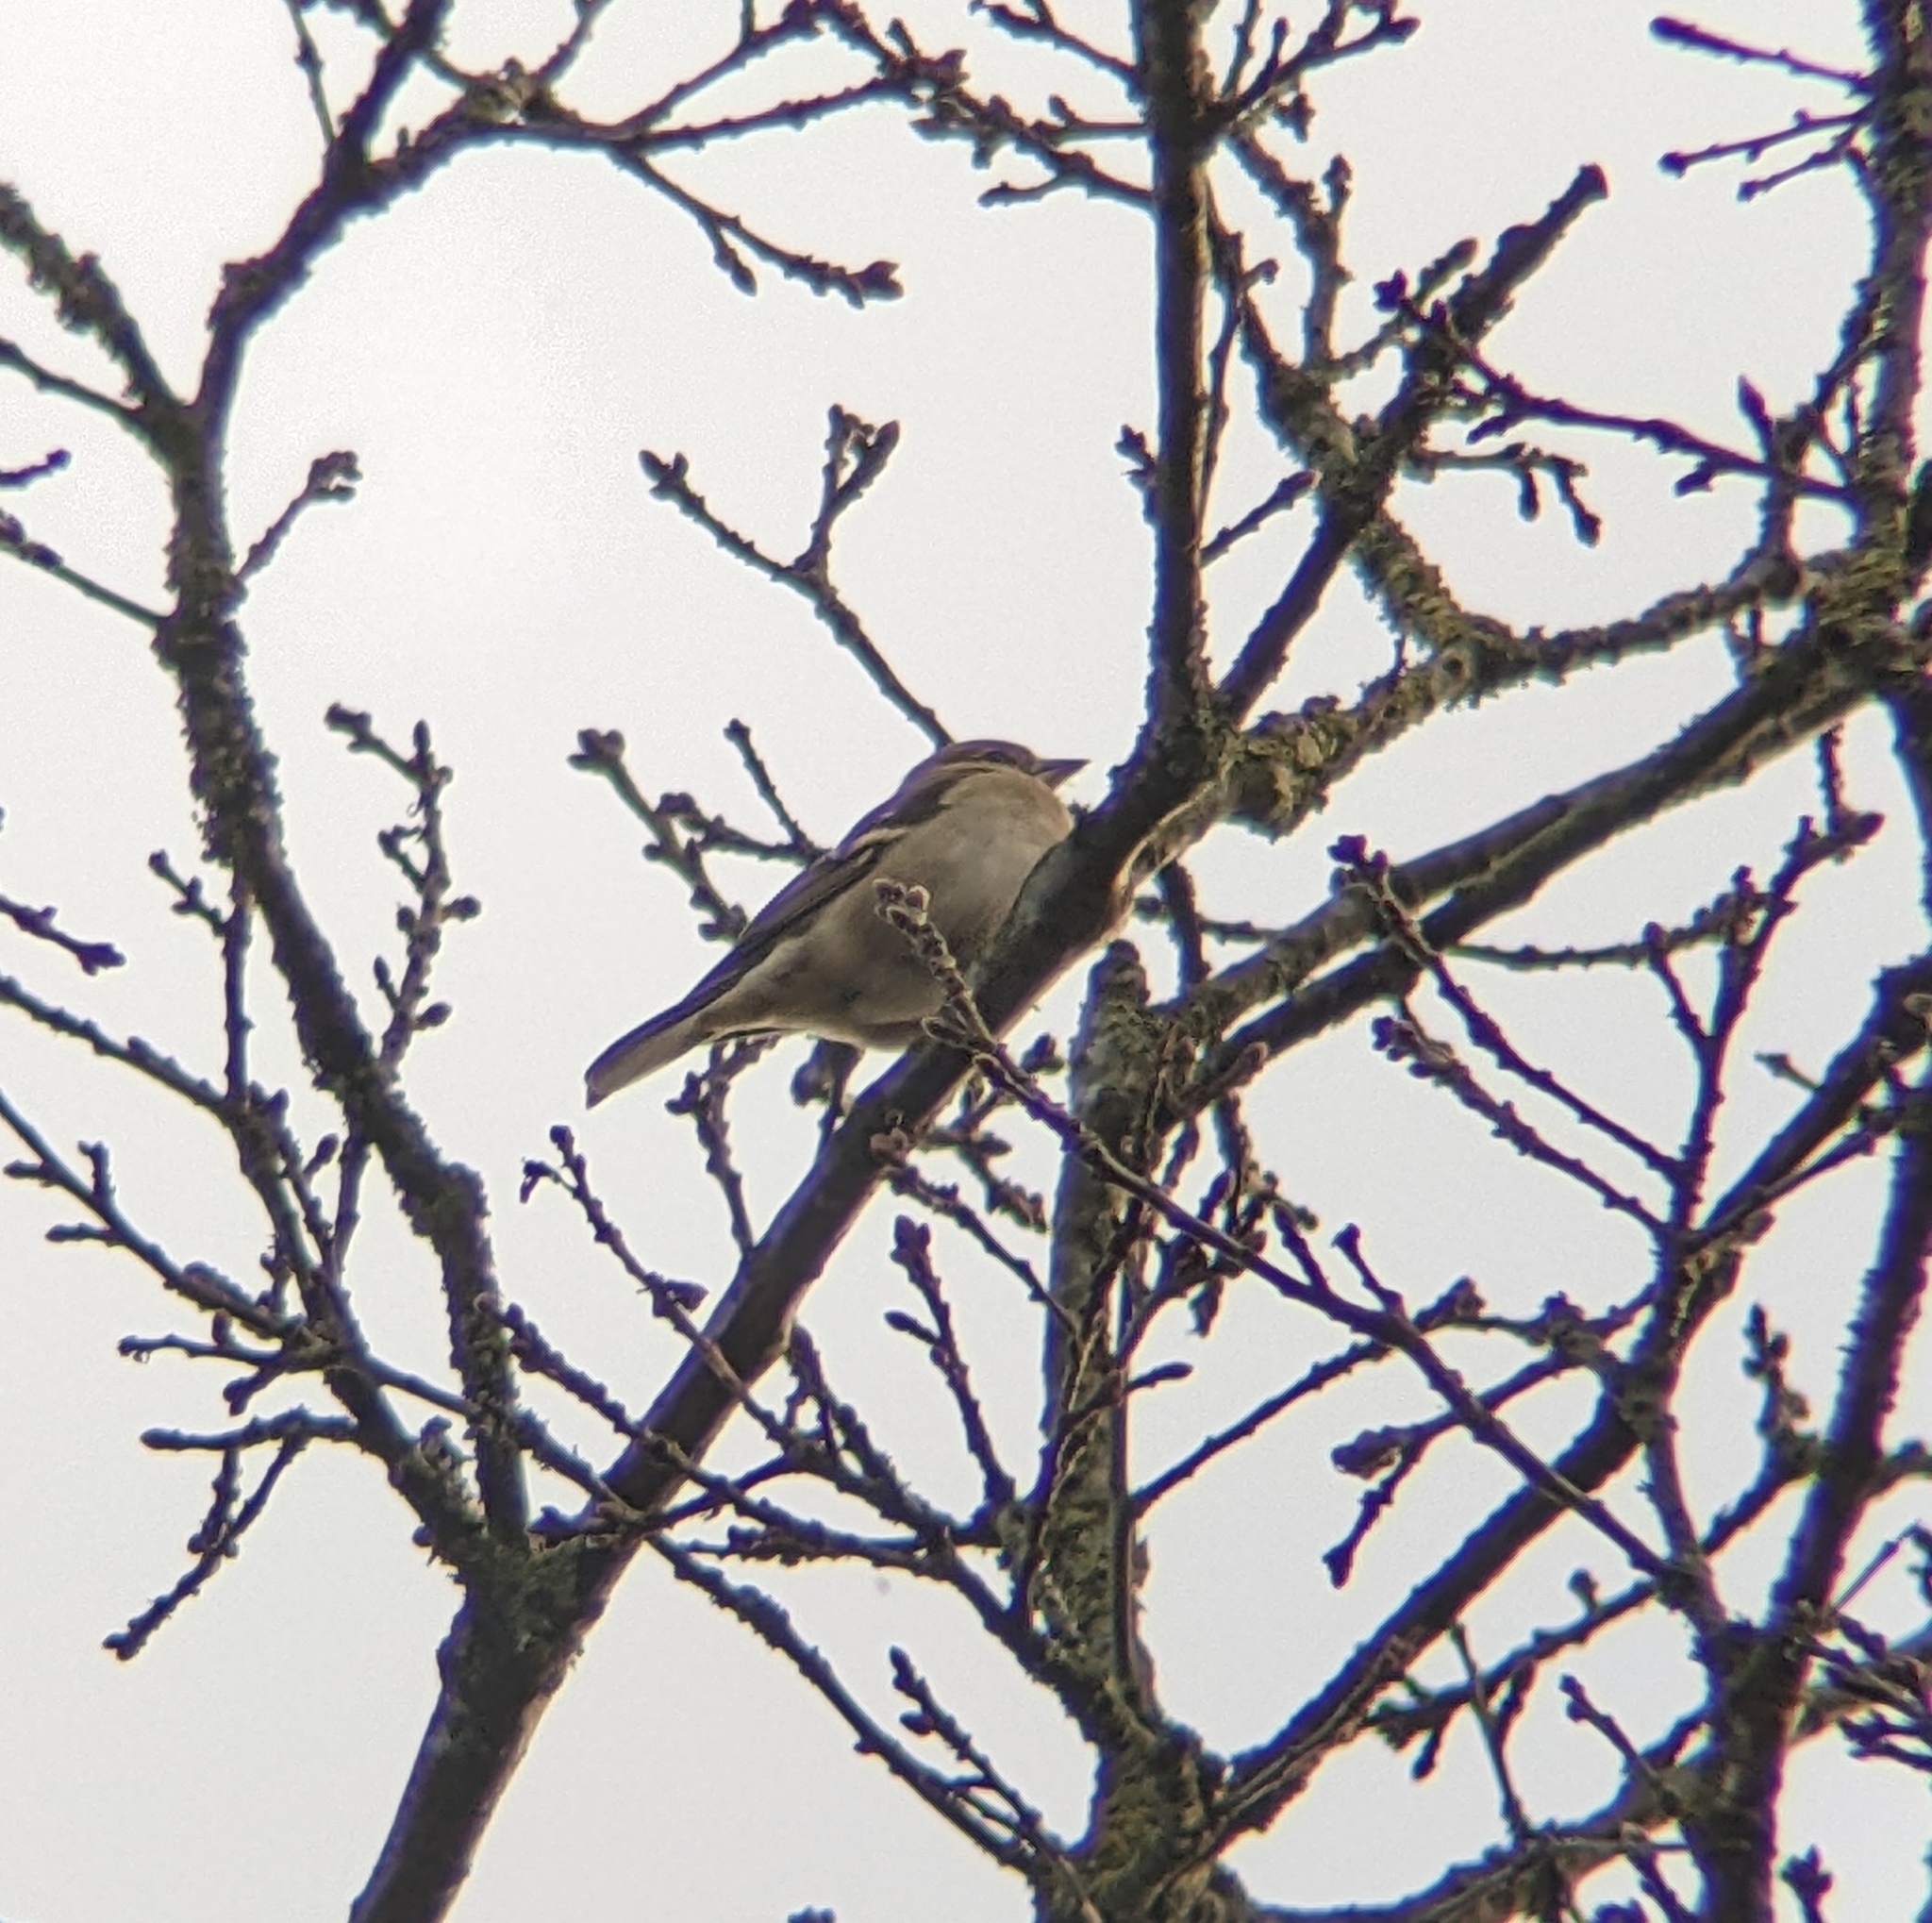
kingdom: Animalia
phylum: Chordata
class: Aves
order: Passeriformes
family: Fringillidae
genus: Fringilla
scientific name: Fringilla coelebs
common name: Common chaffinch
